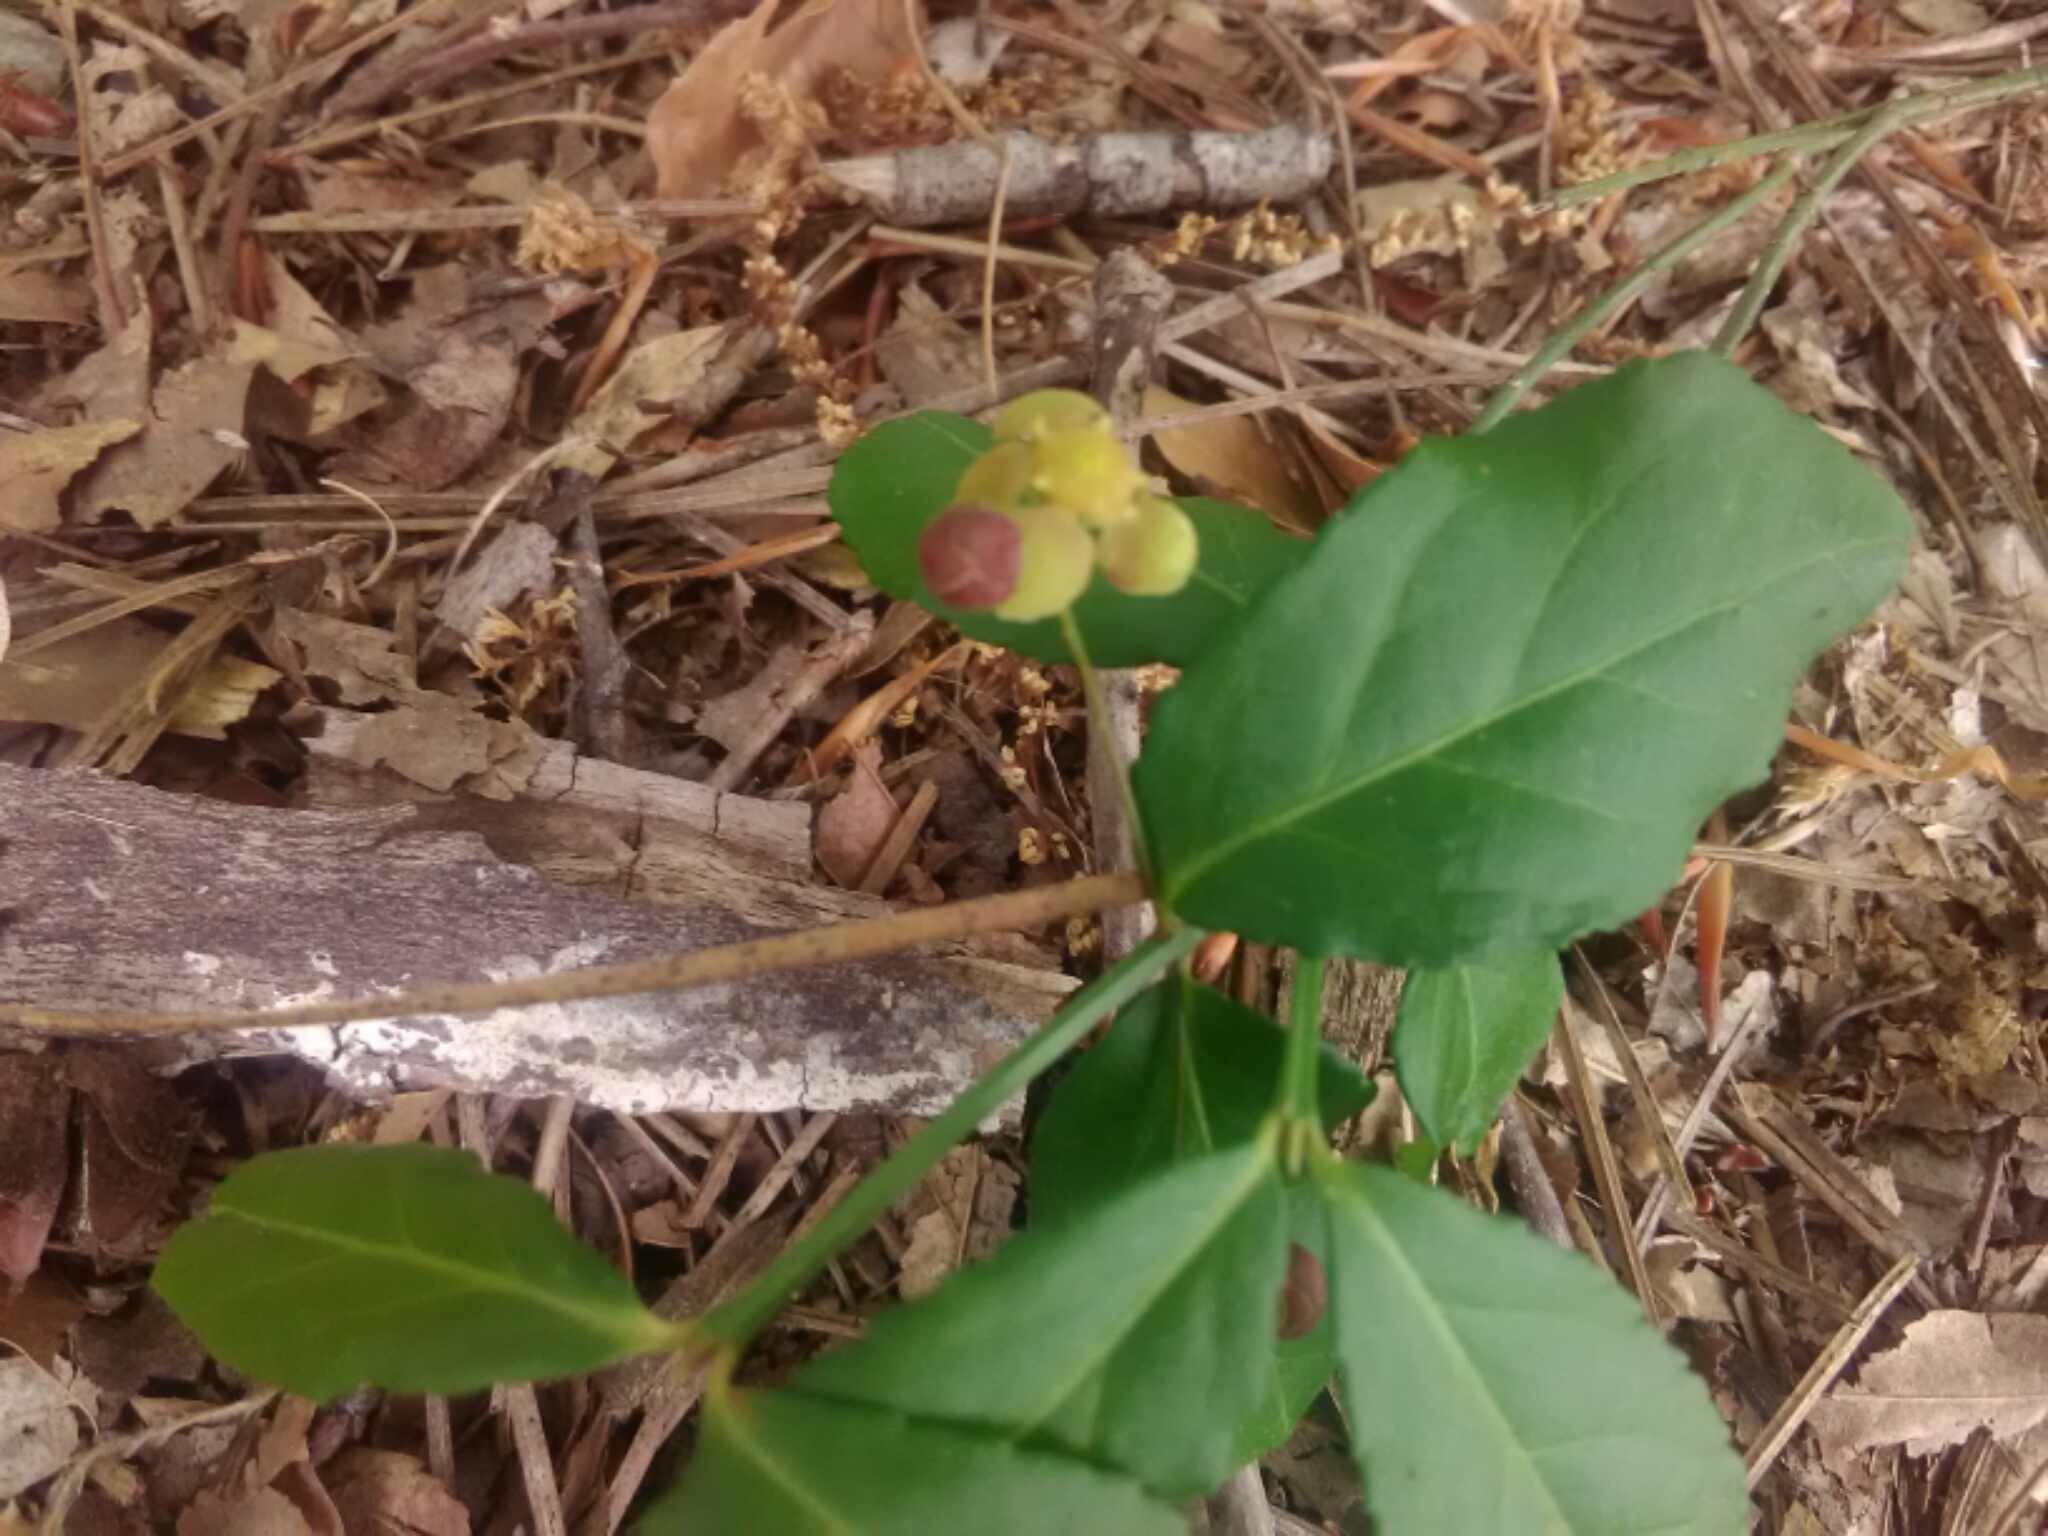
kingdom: Plantae
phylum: Tracheophyta
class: Magnoliopsida
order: Celastrales
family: Celastraceae
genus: Euonymus
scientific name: Euonymus americanus
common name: Bursting-heart
